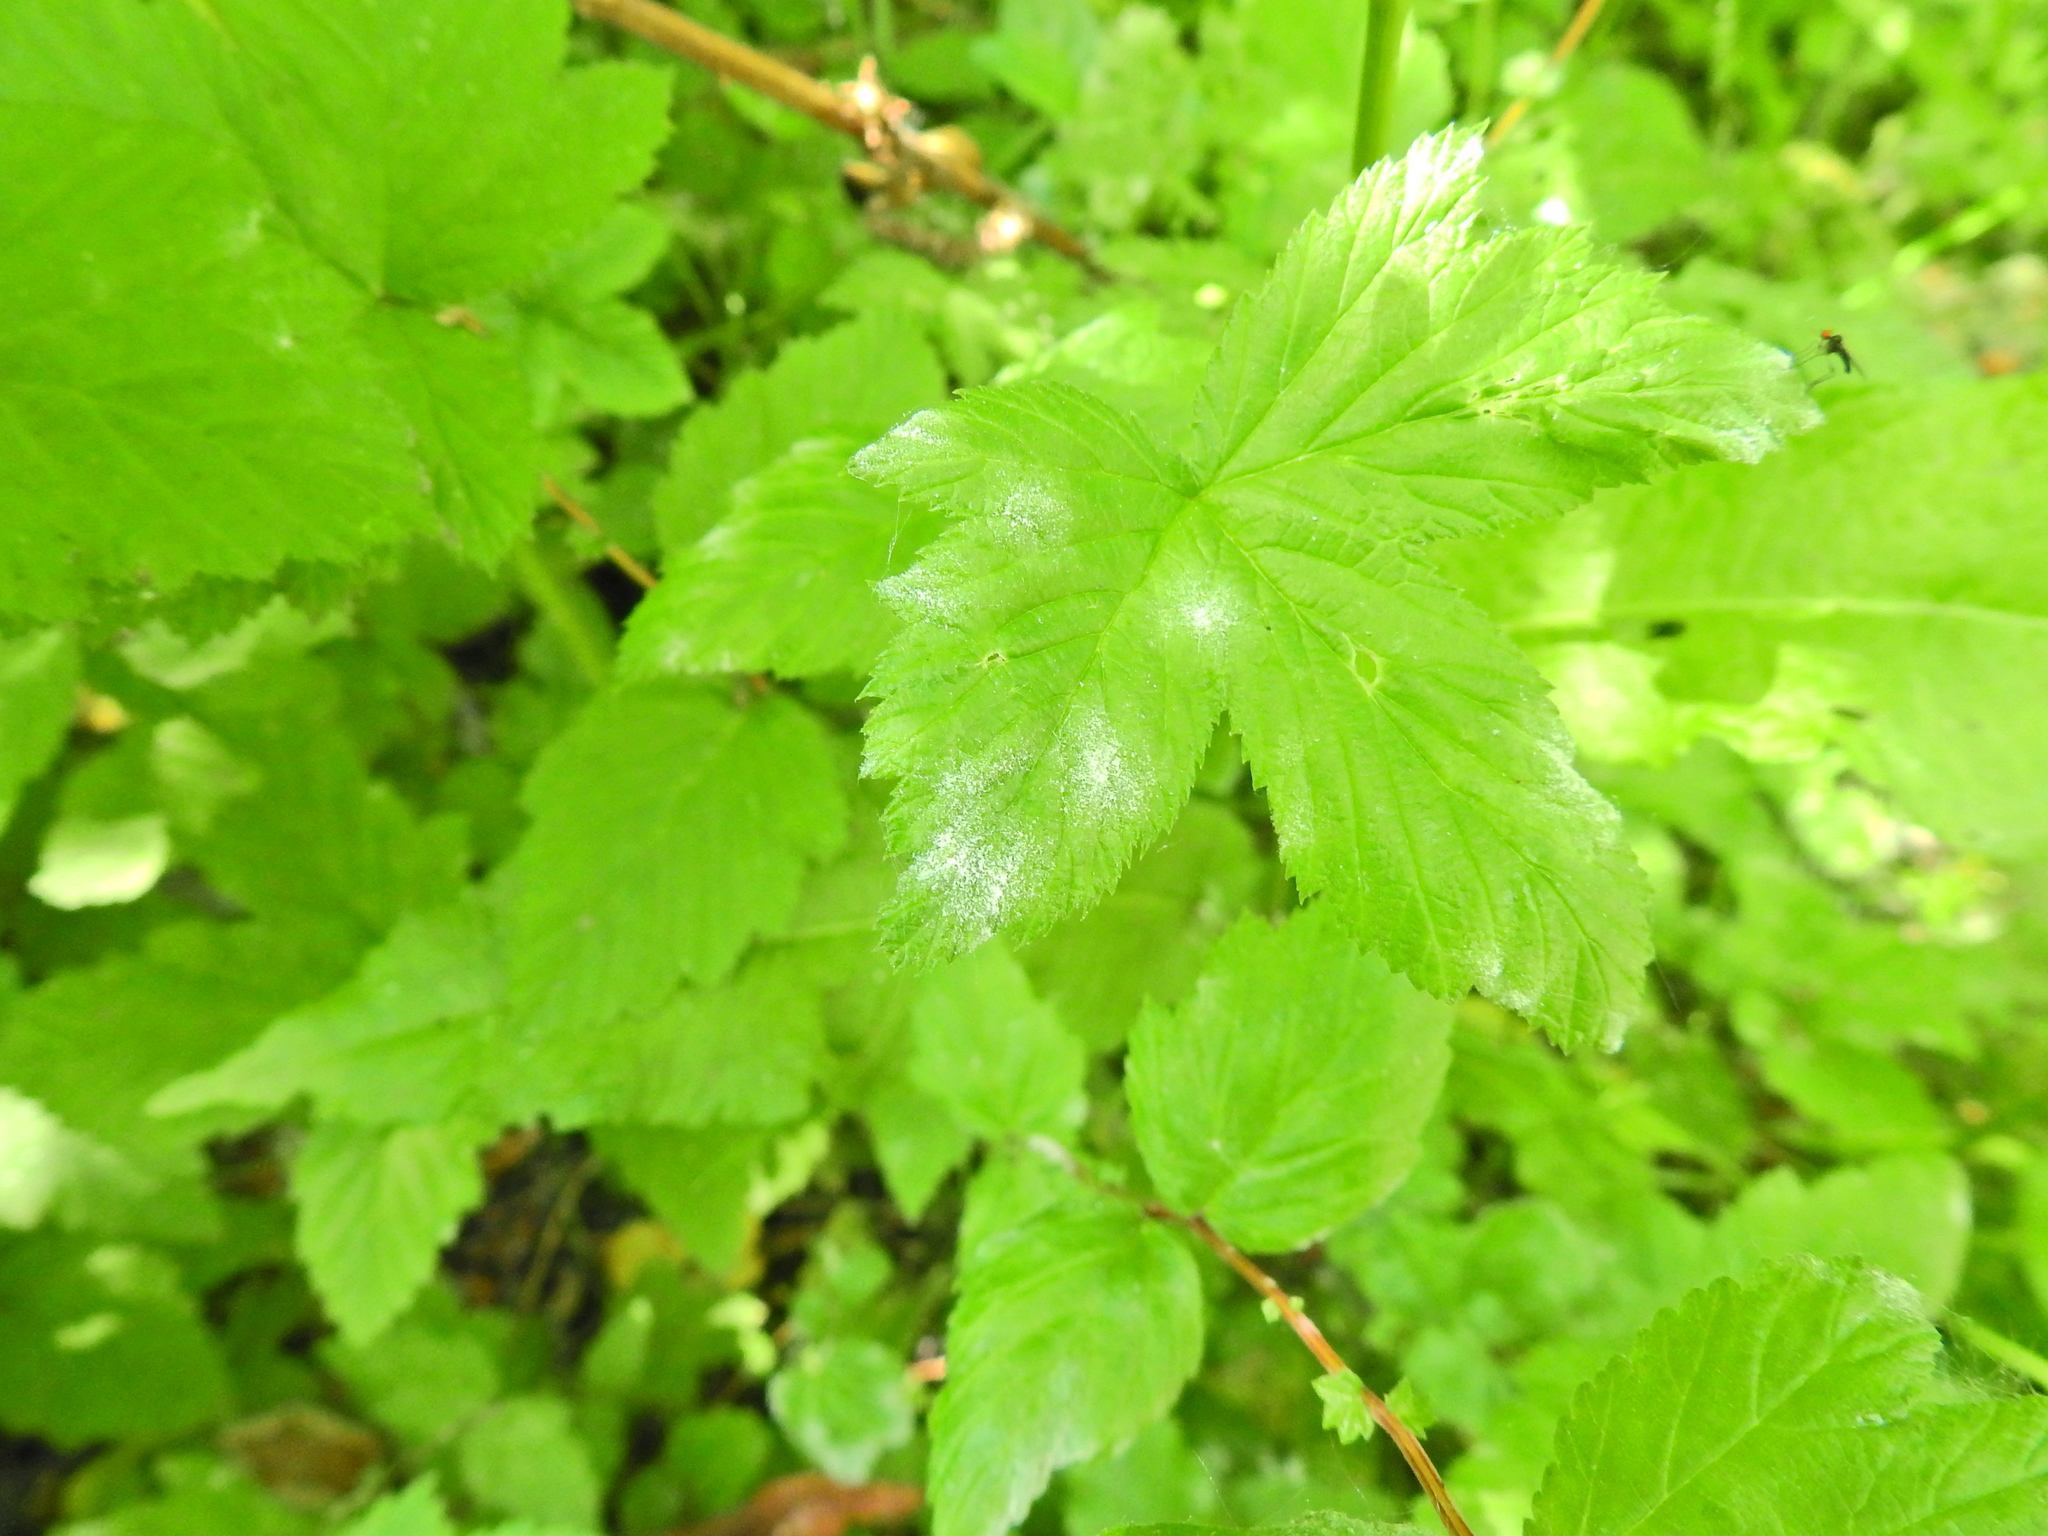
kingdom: Fungi
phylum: Ascomycota
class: Leotiomycetes
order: Helotiales
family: Erysiphaceae
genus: Podosphaera
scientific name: Podosphaera filipendulae
